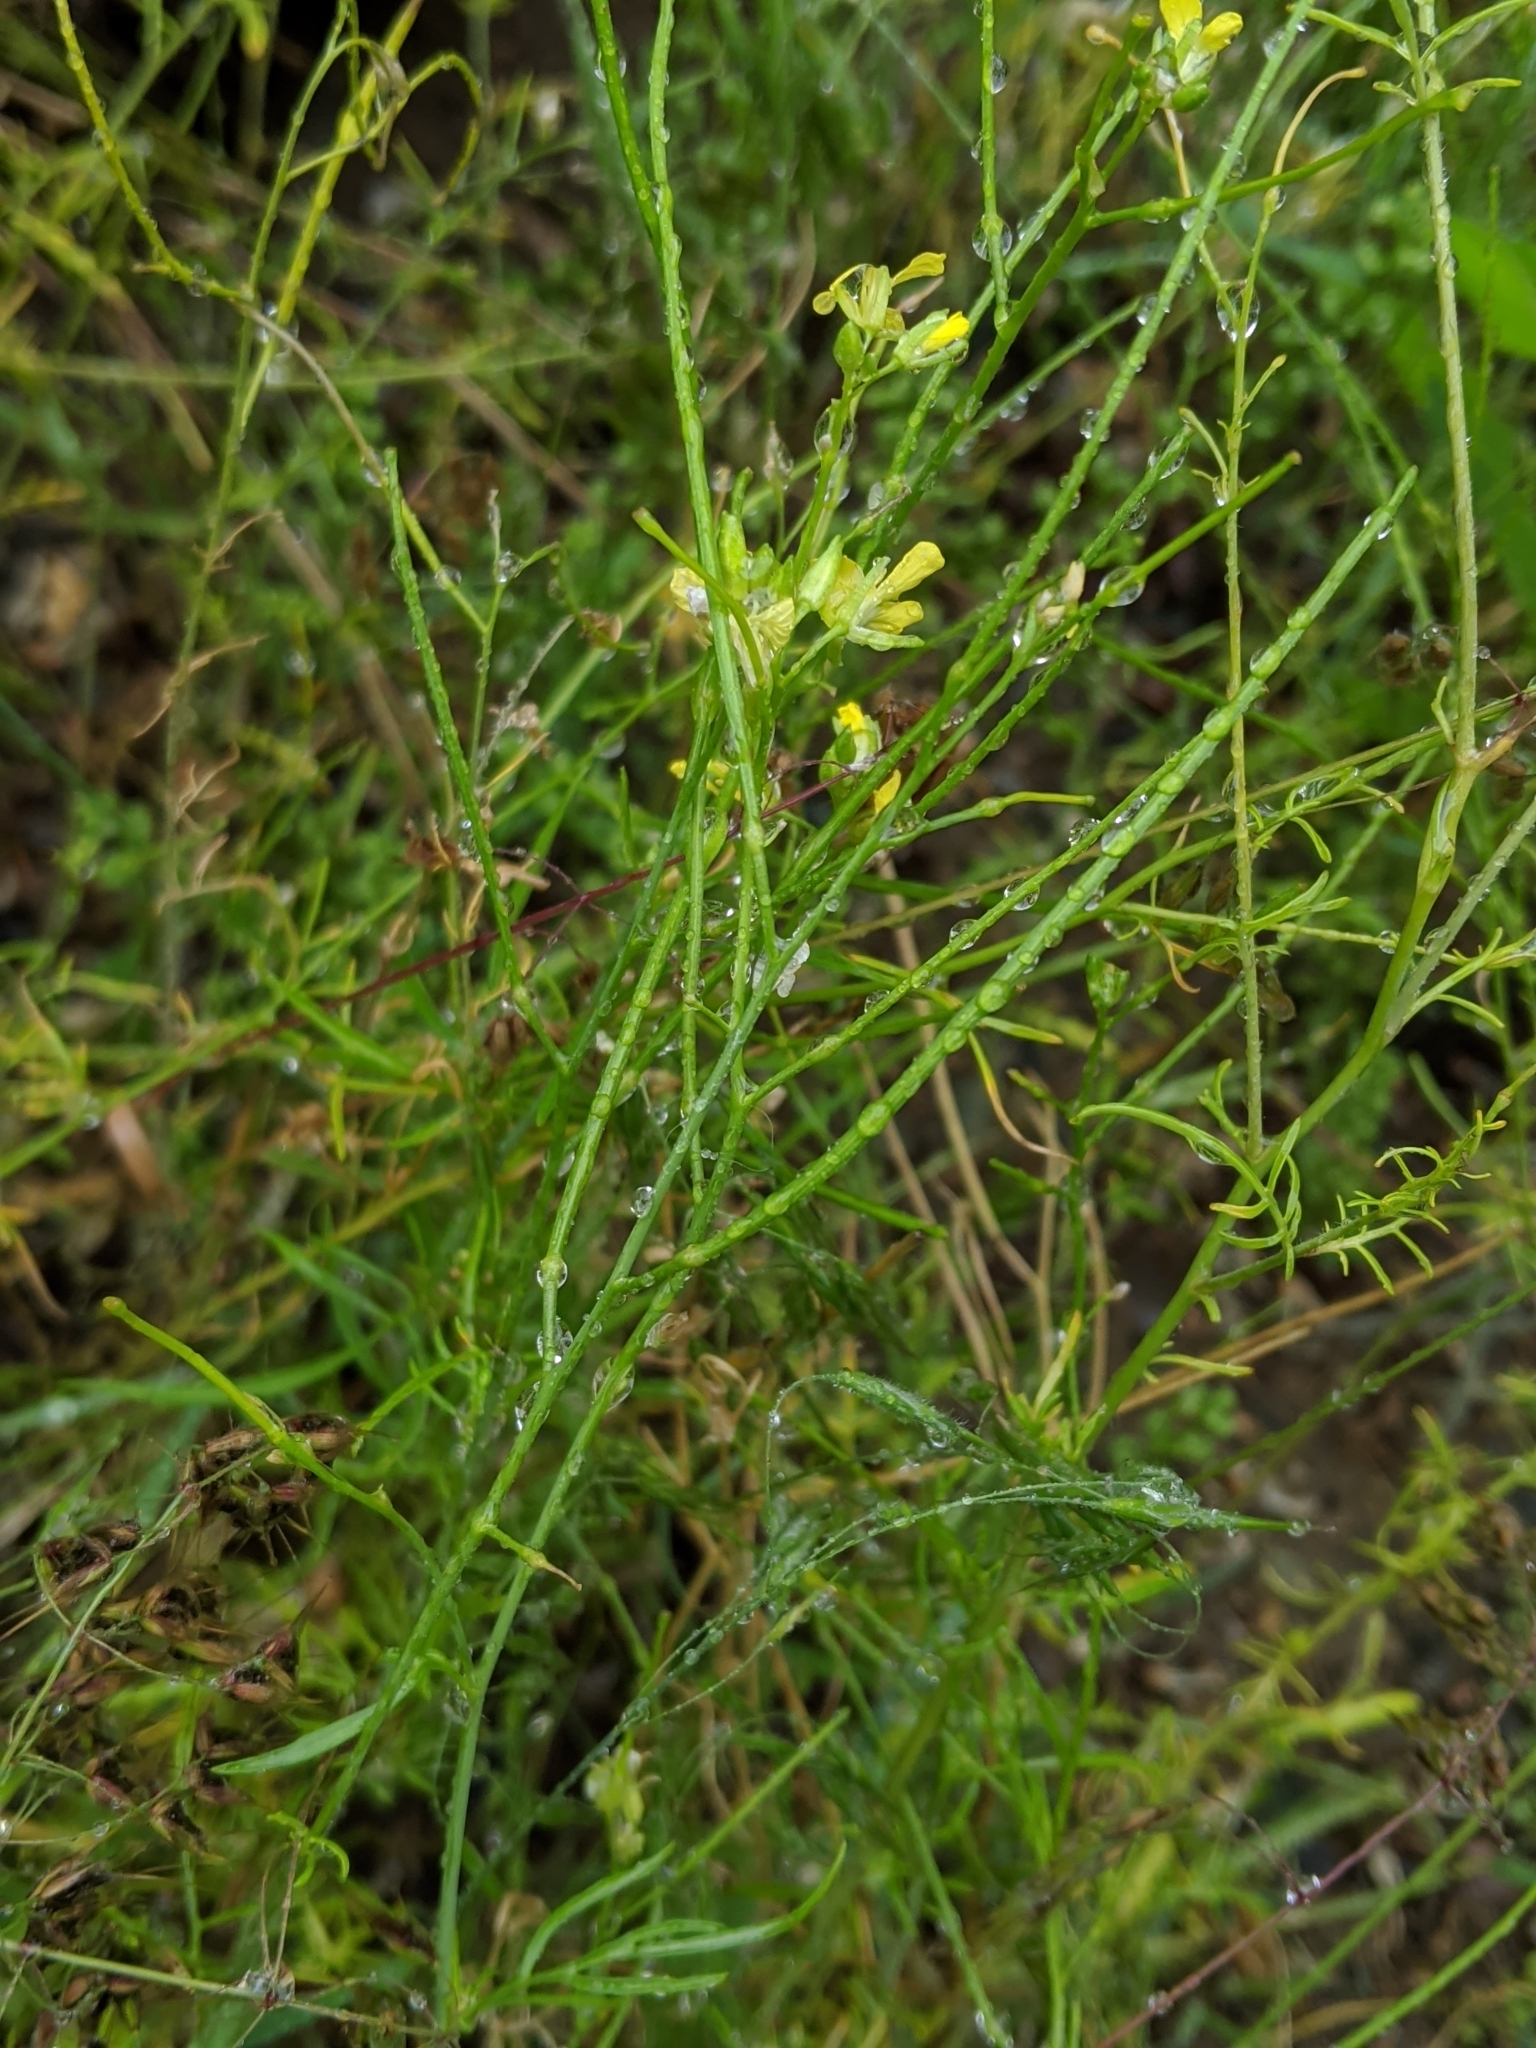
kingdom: Plantae
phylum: Tracheophyta
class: Magnoliopsida
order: Brassicales
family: Brassicaceae
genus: Sisymbrium
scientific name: Sisymbrium altissimum
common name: Tall rocket
